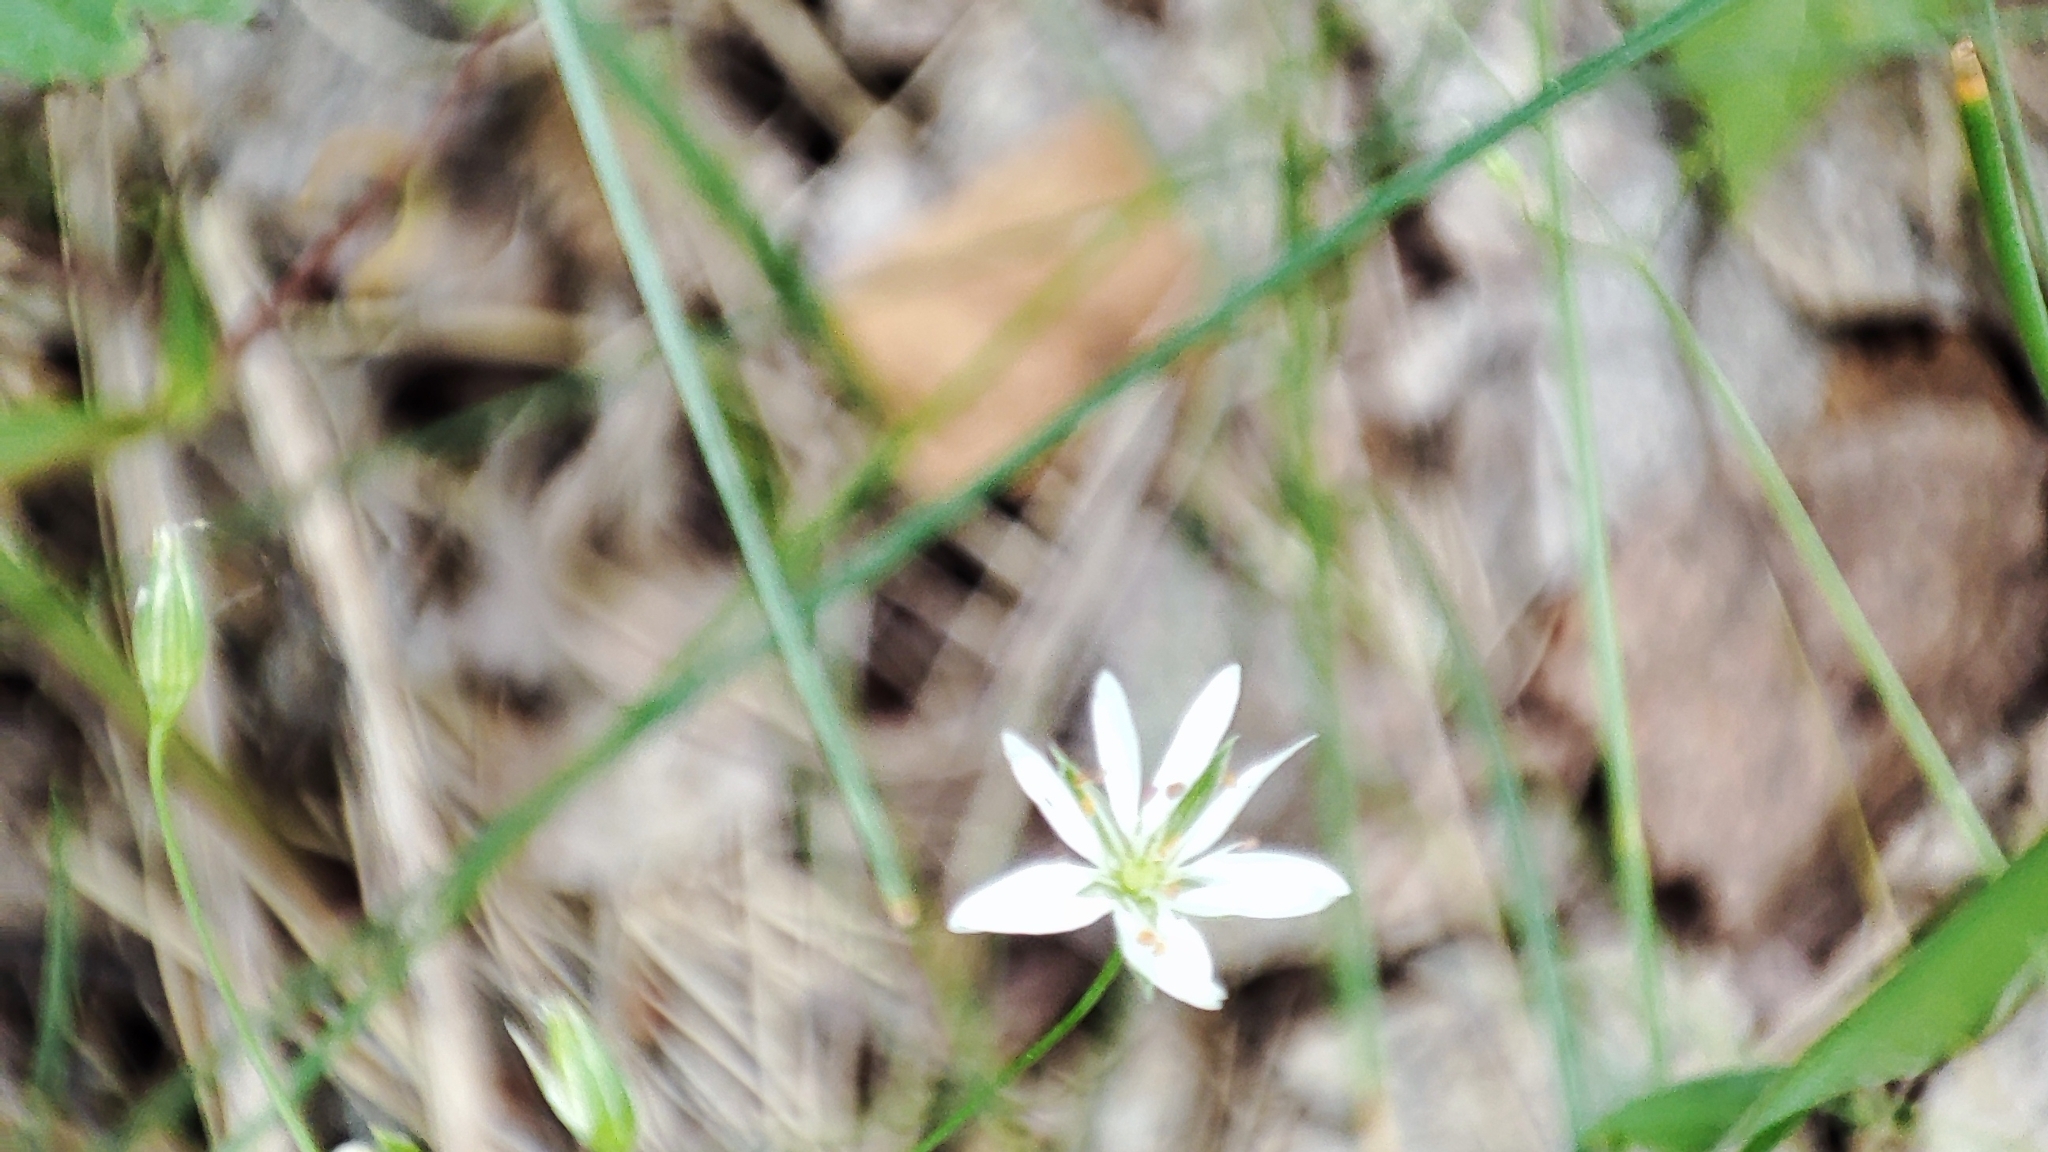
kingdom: Plantae
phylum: Tracheophyta
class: Magnoliopsida
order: Caryophyllales
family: Caryophyllaceae
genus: Stellaria
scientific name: Stellaria graminea
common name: Grass-like starwort
